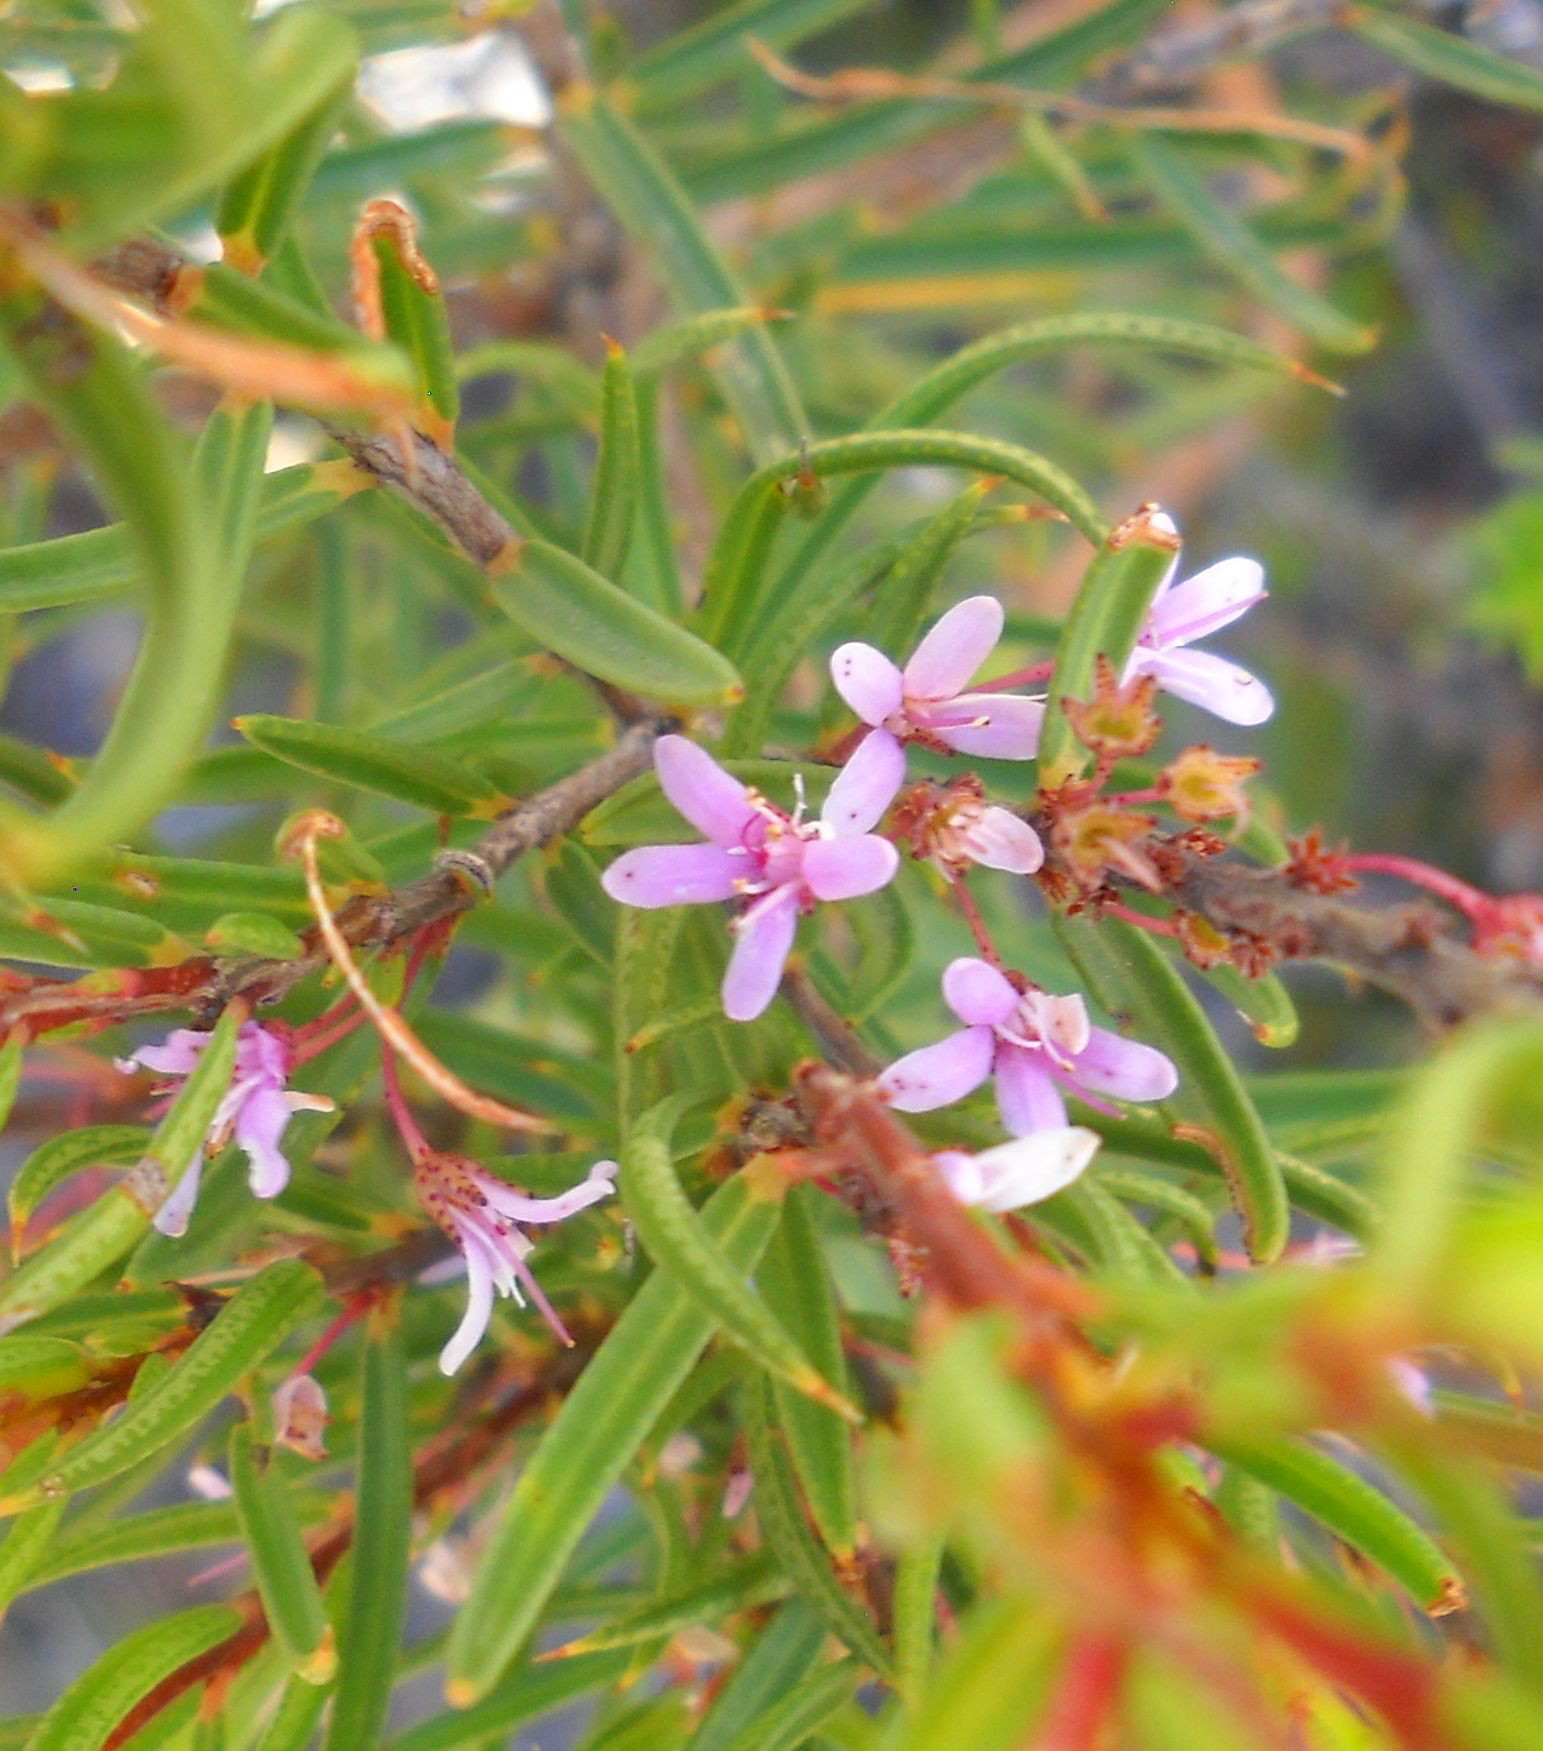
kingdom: Plantae
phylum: Tracheophyta
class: Magnoliopsida
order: Sapindales
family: Rutaceae
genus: Agathosma
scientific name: Agathosma pungens
